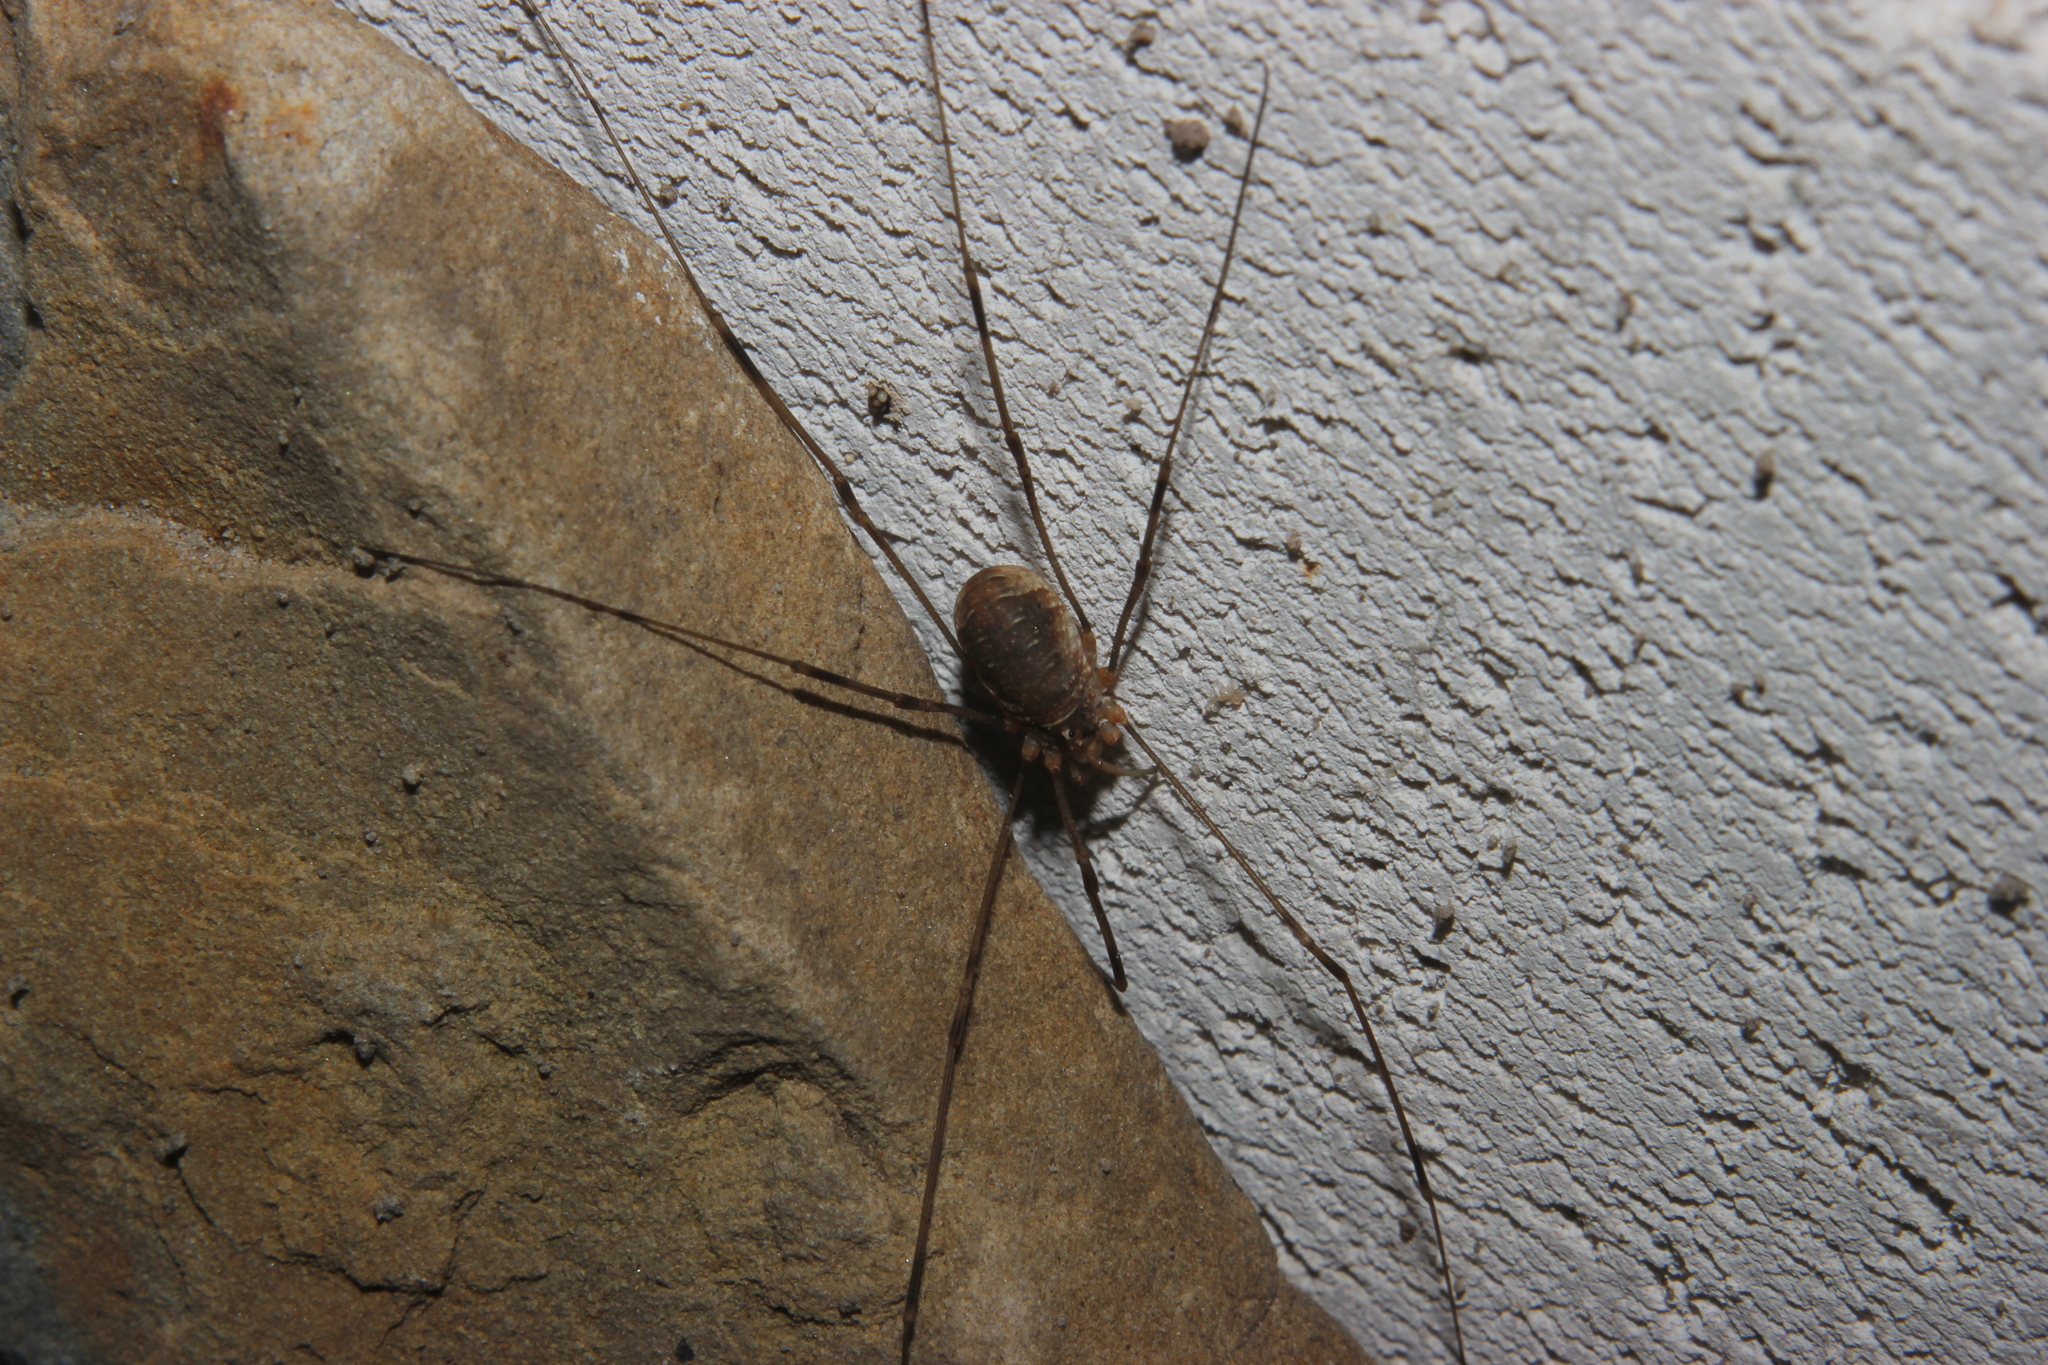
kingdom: Animalia
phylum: Arthropoda
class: Arachnida
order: Opiliones
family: Phalangiidae
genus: Opilio
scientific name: Opilio canestrinii
